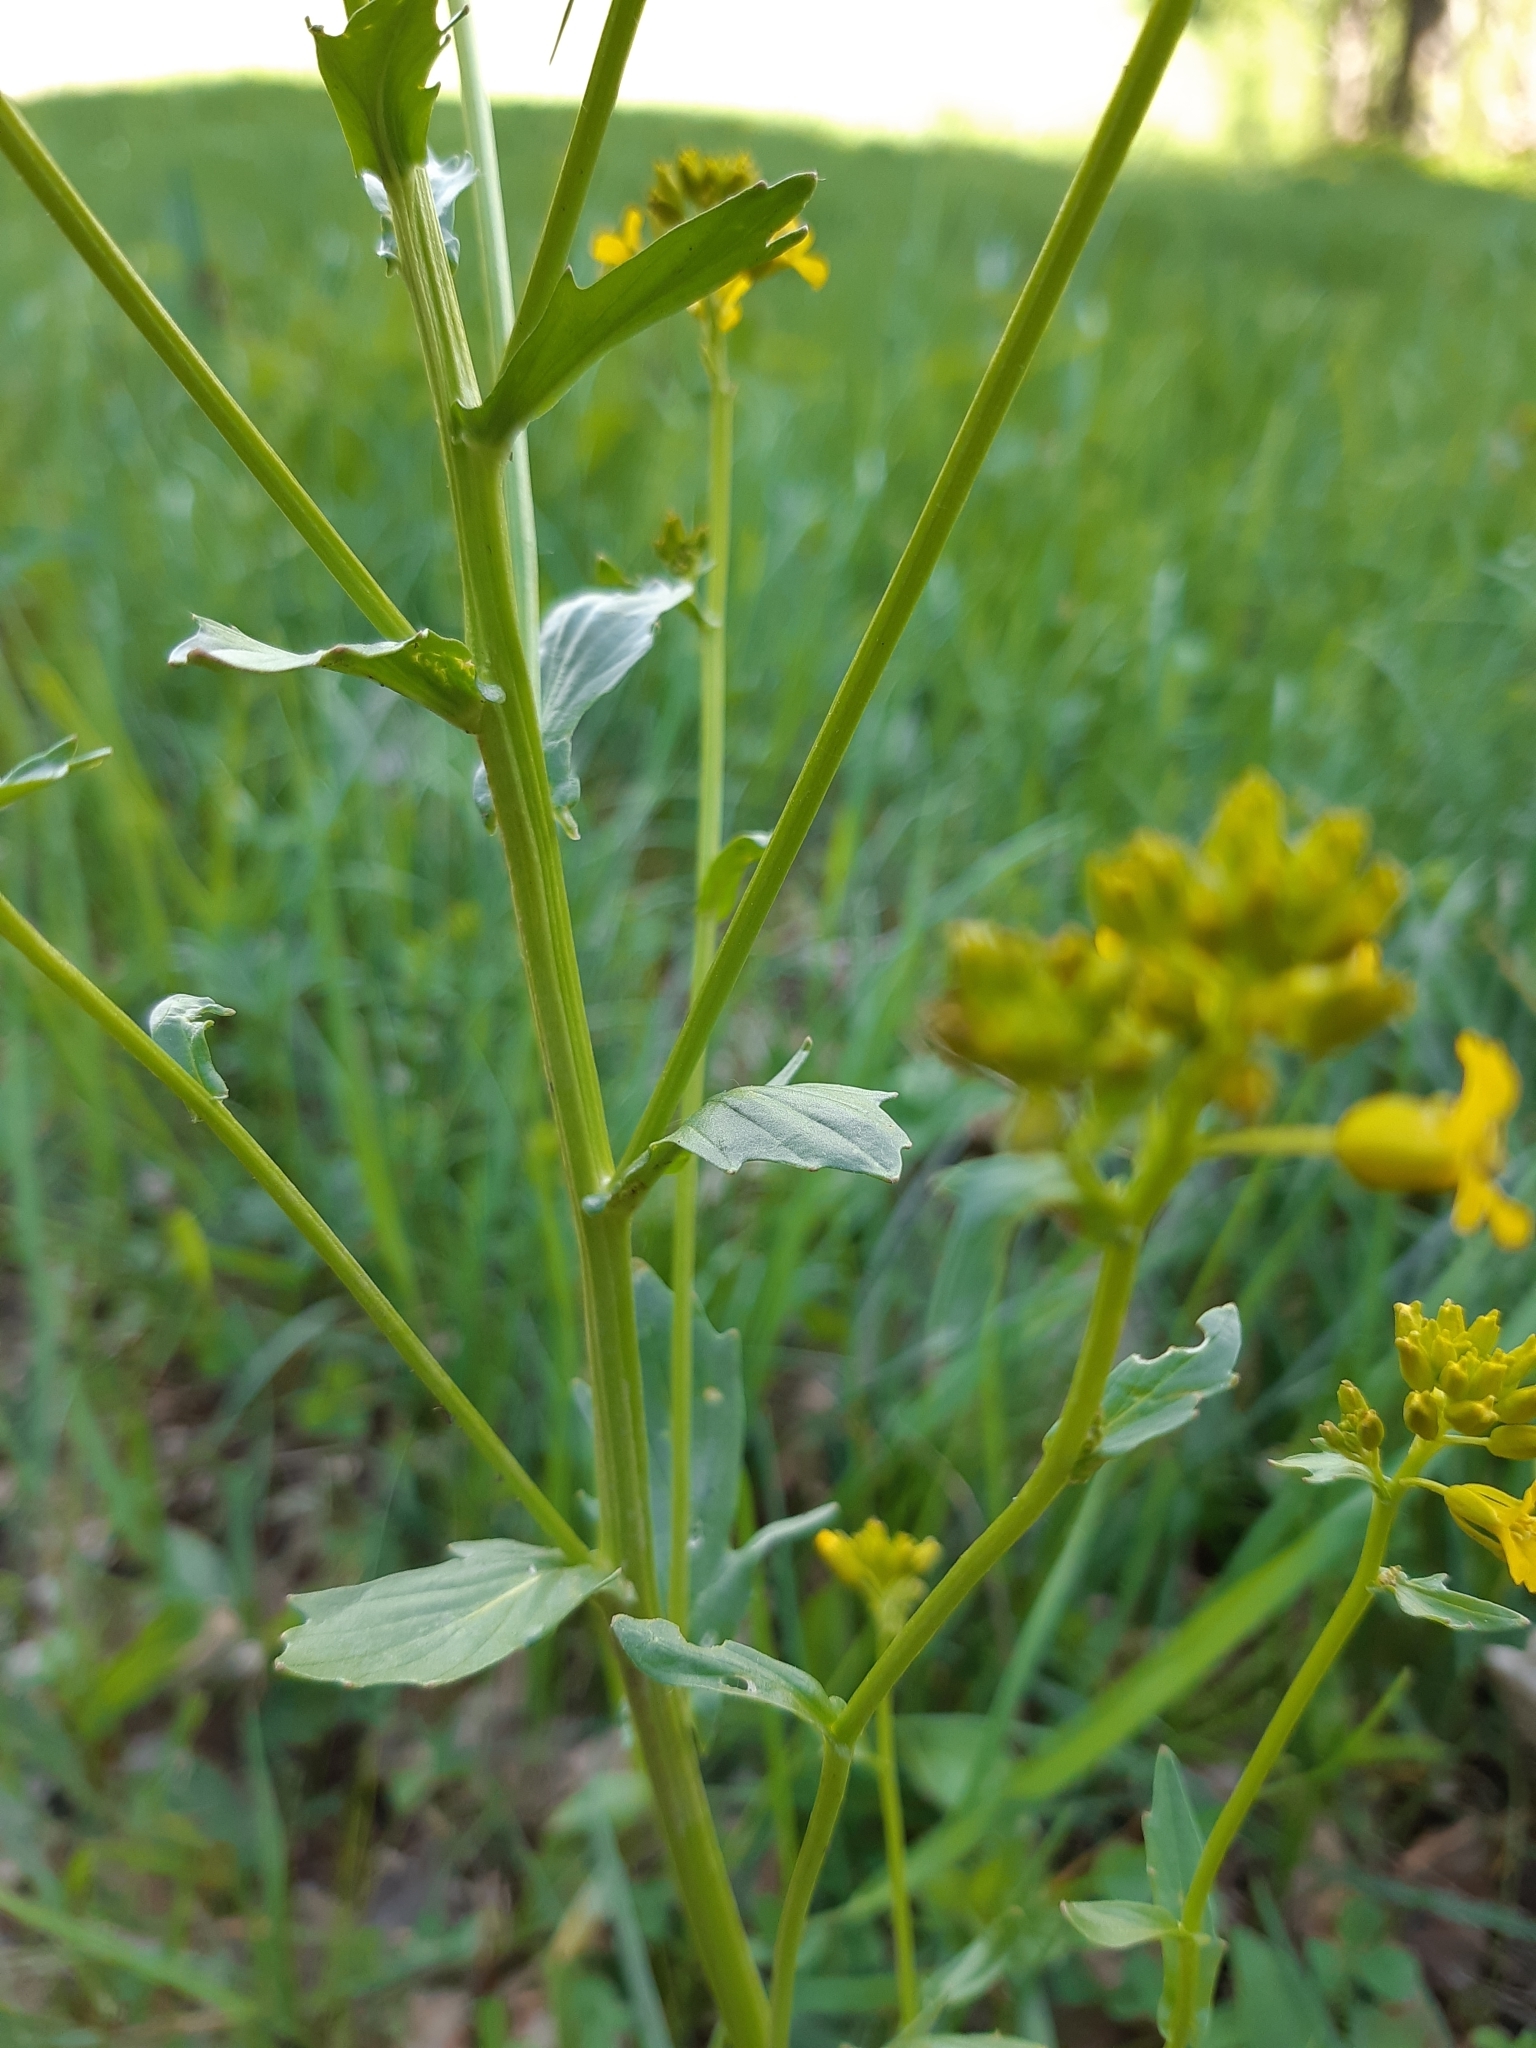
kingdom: Plantae
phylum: Tracheophyta
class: Magnoliopsida
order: Brassicales
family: Brassicaceae
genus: Barbarea
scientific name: Barbarea vulgaris
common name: Cressy-greens
